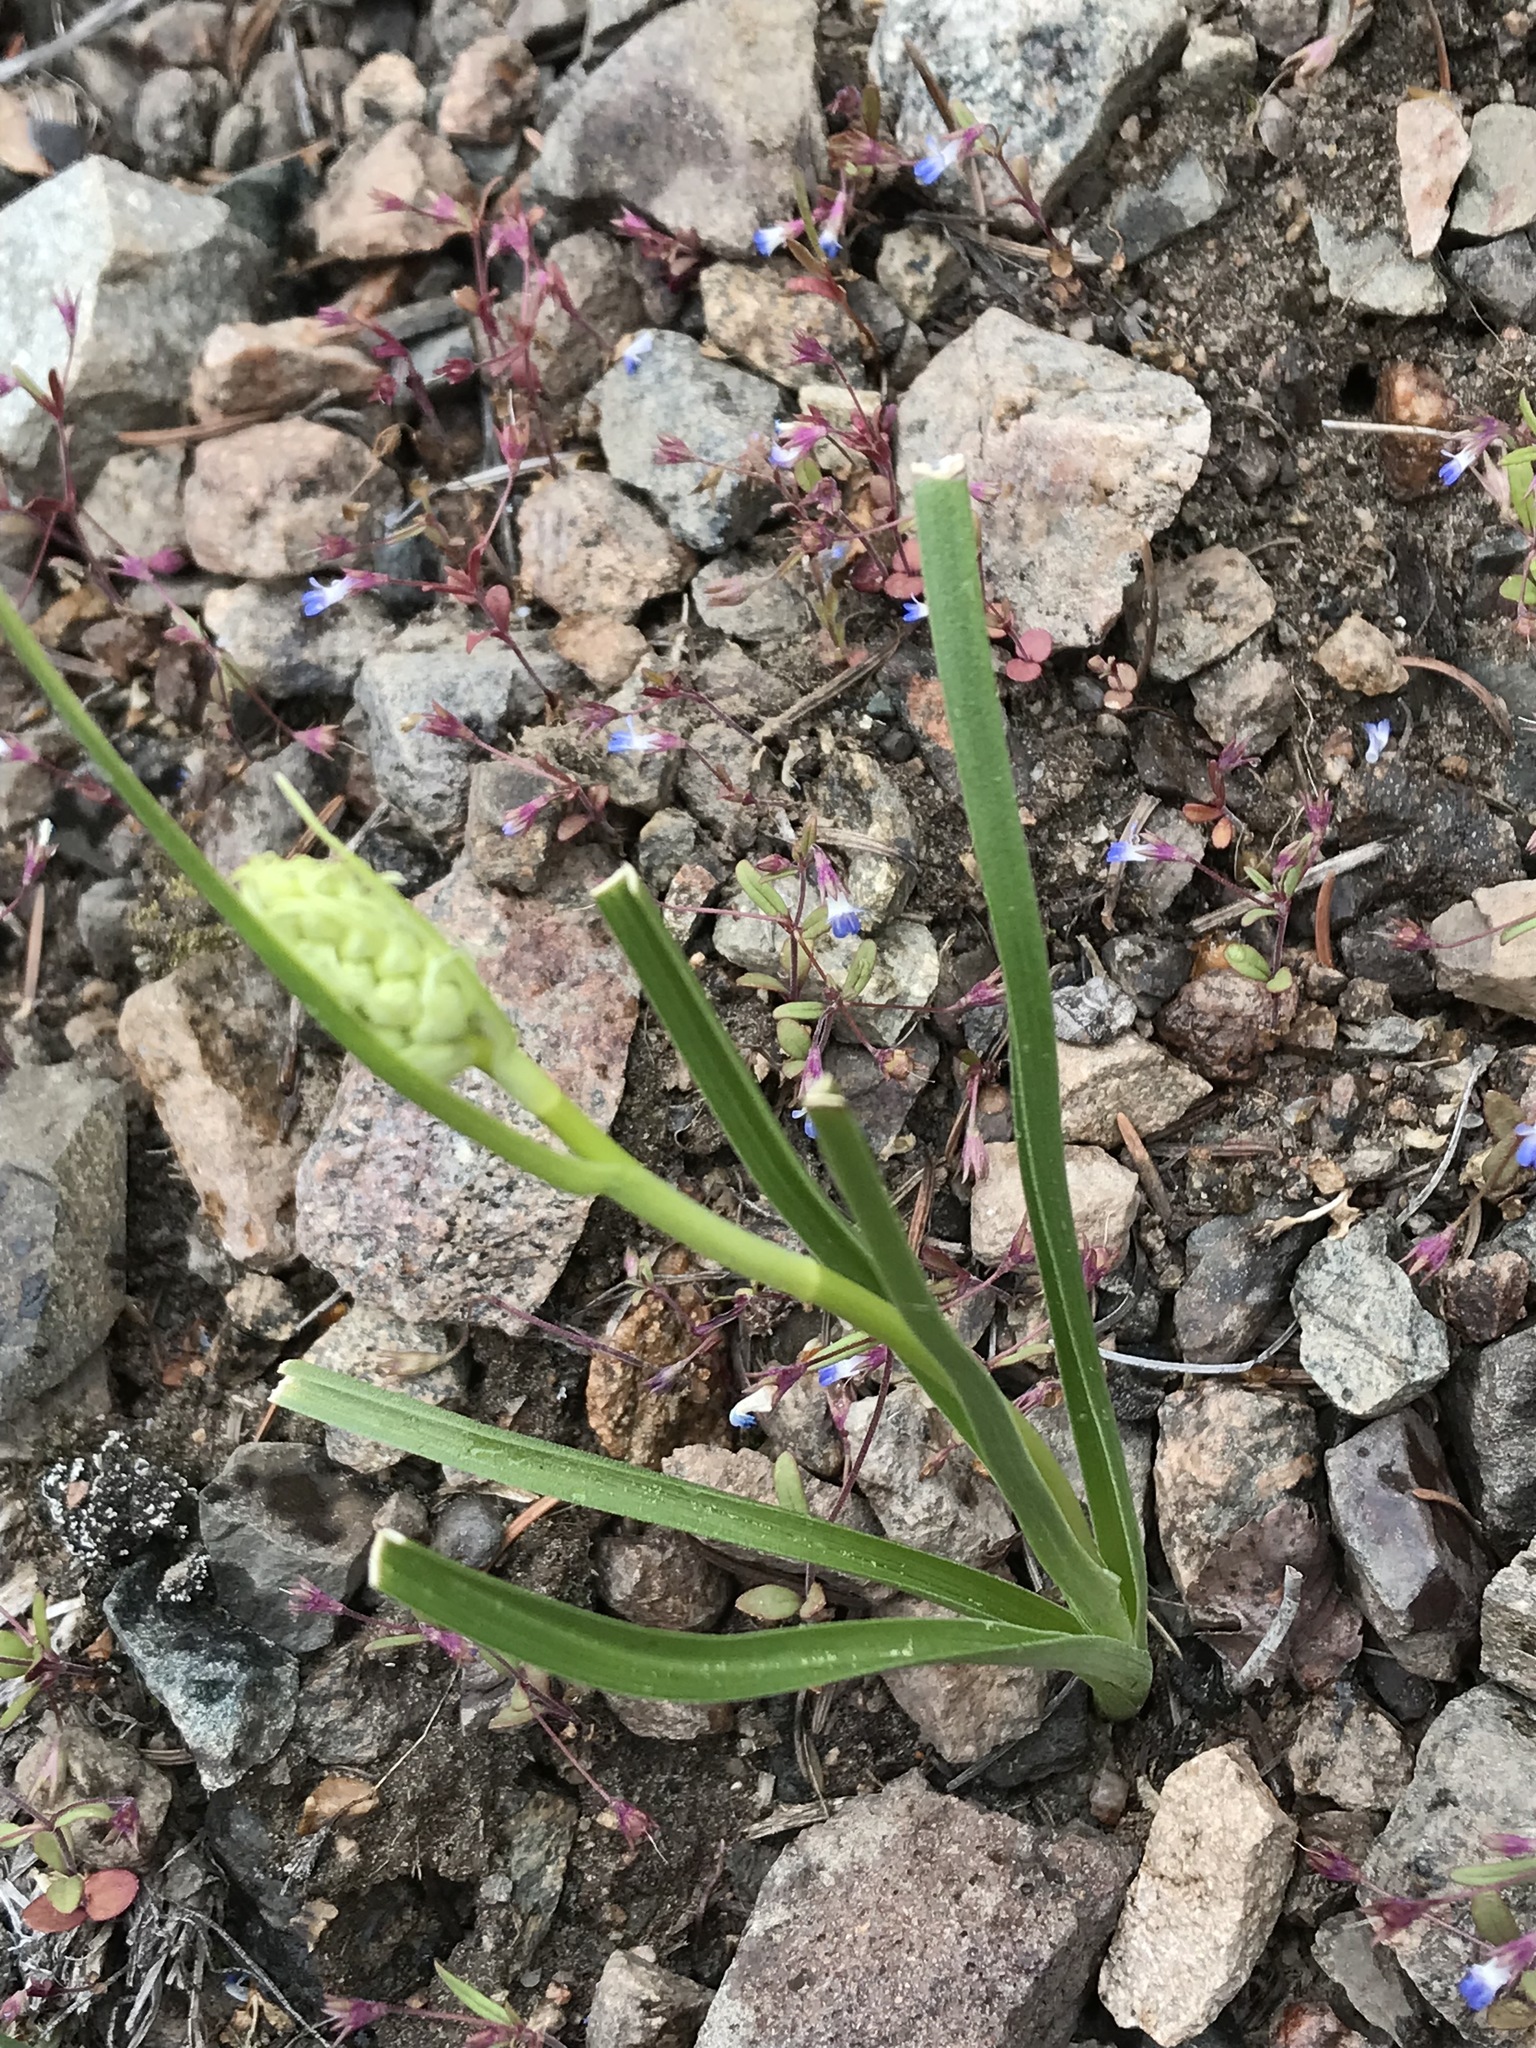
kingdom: Plantae
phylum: Tracheophyta
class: Liliopsida
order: Liliales
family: Melanthiaceae
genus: Toxicoscordion
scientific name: Toxicoscordion venenosum
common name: Meadow death camas
